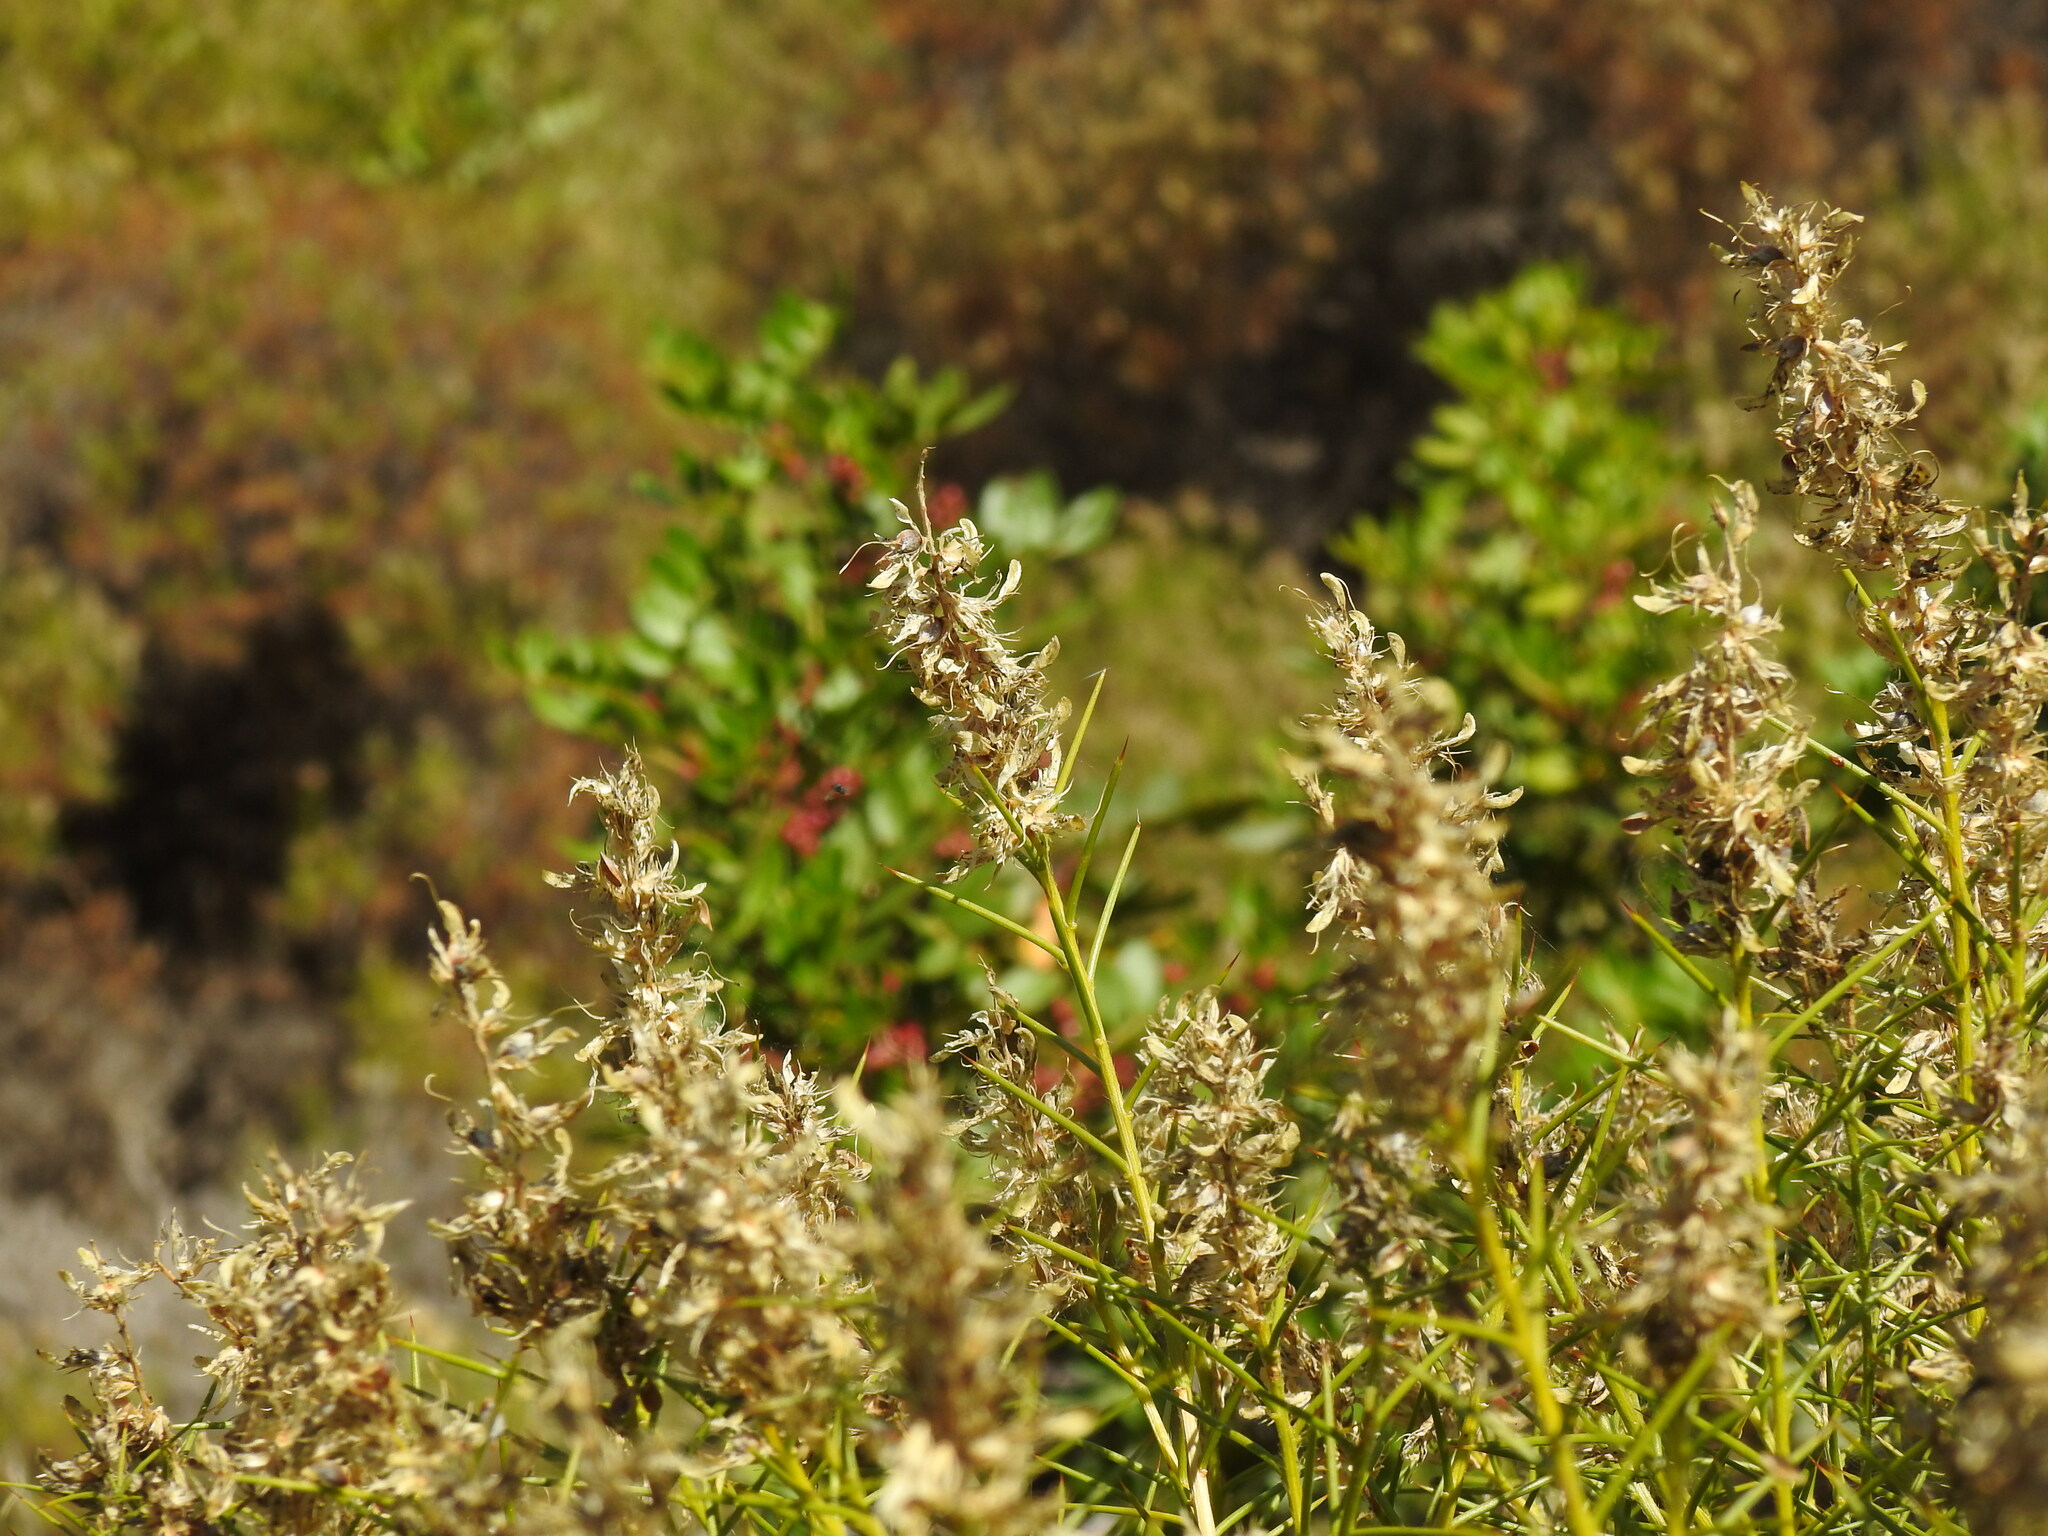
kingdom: Plantae
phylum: Tracheophyta
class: Magnoliopsida
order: Fabales
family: Fabaceae
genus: Genista
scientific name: Genista hirsuta
